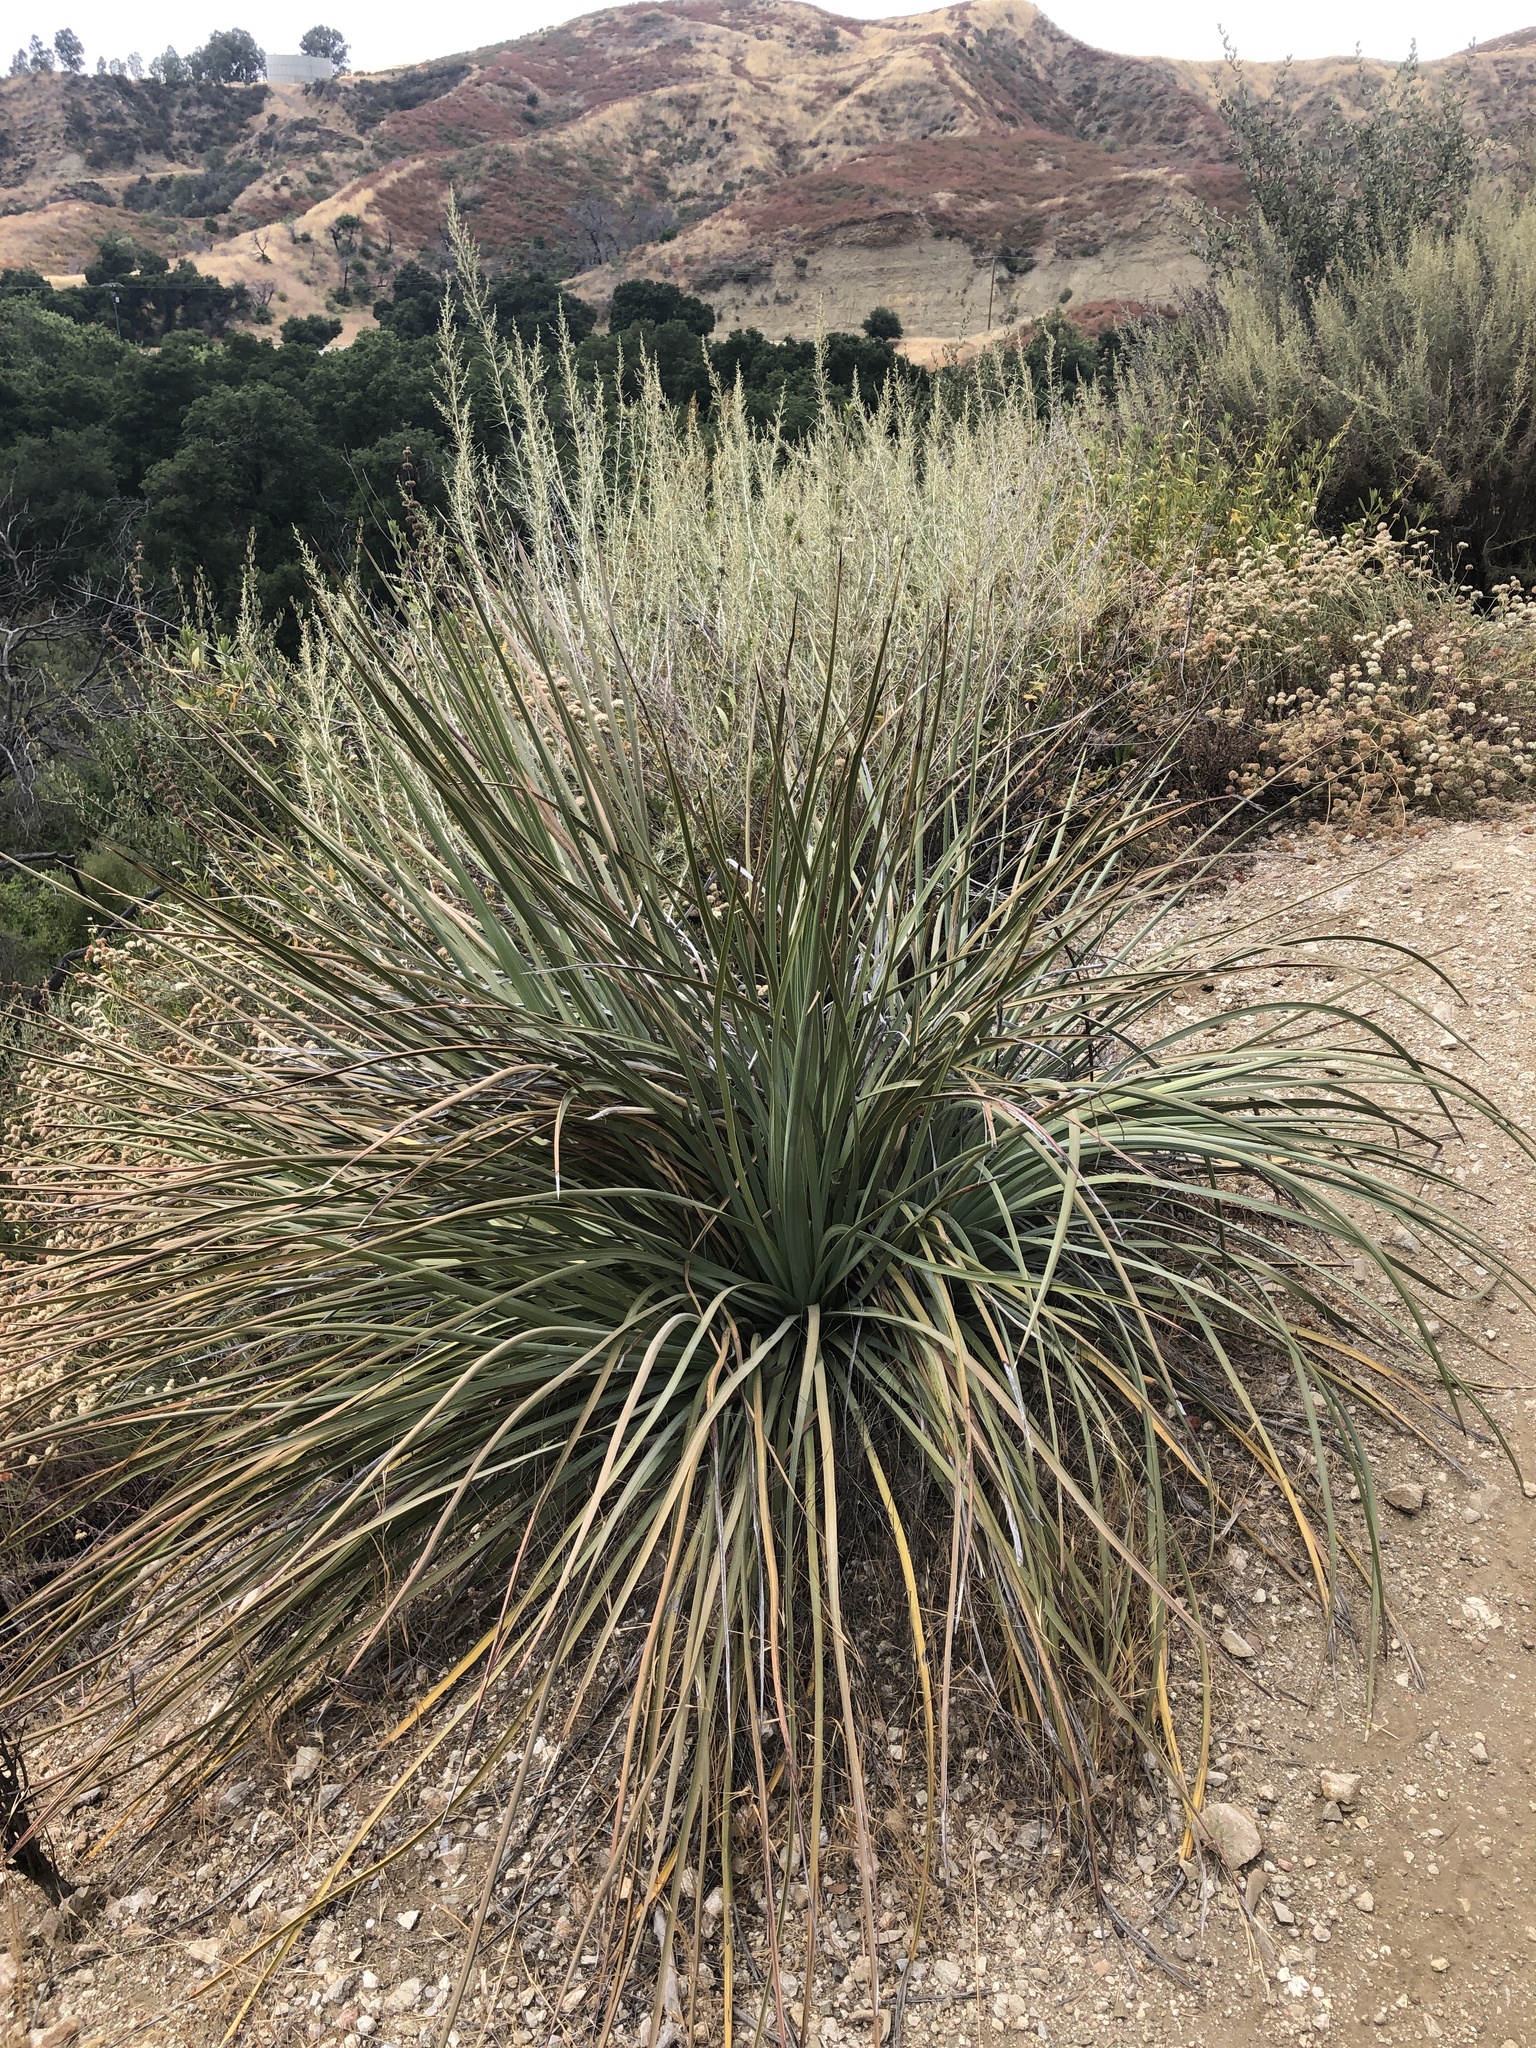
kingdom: Plantae
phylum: Tracheophyta
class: Liliopsida
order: Asparagales
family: Asparagaceae
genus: Hesperoyucca
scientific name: Hesperoyucca whipplei
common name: Our lord's-candle
